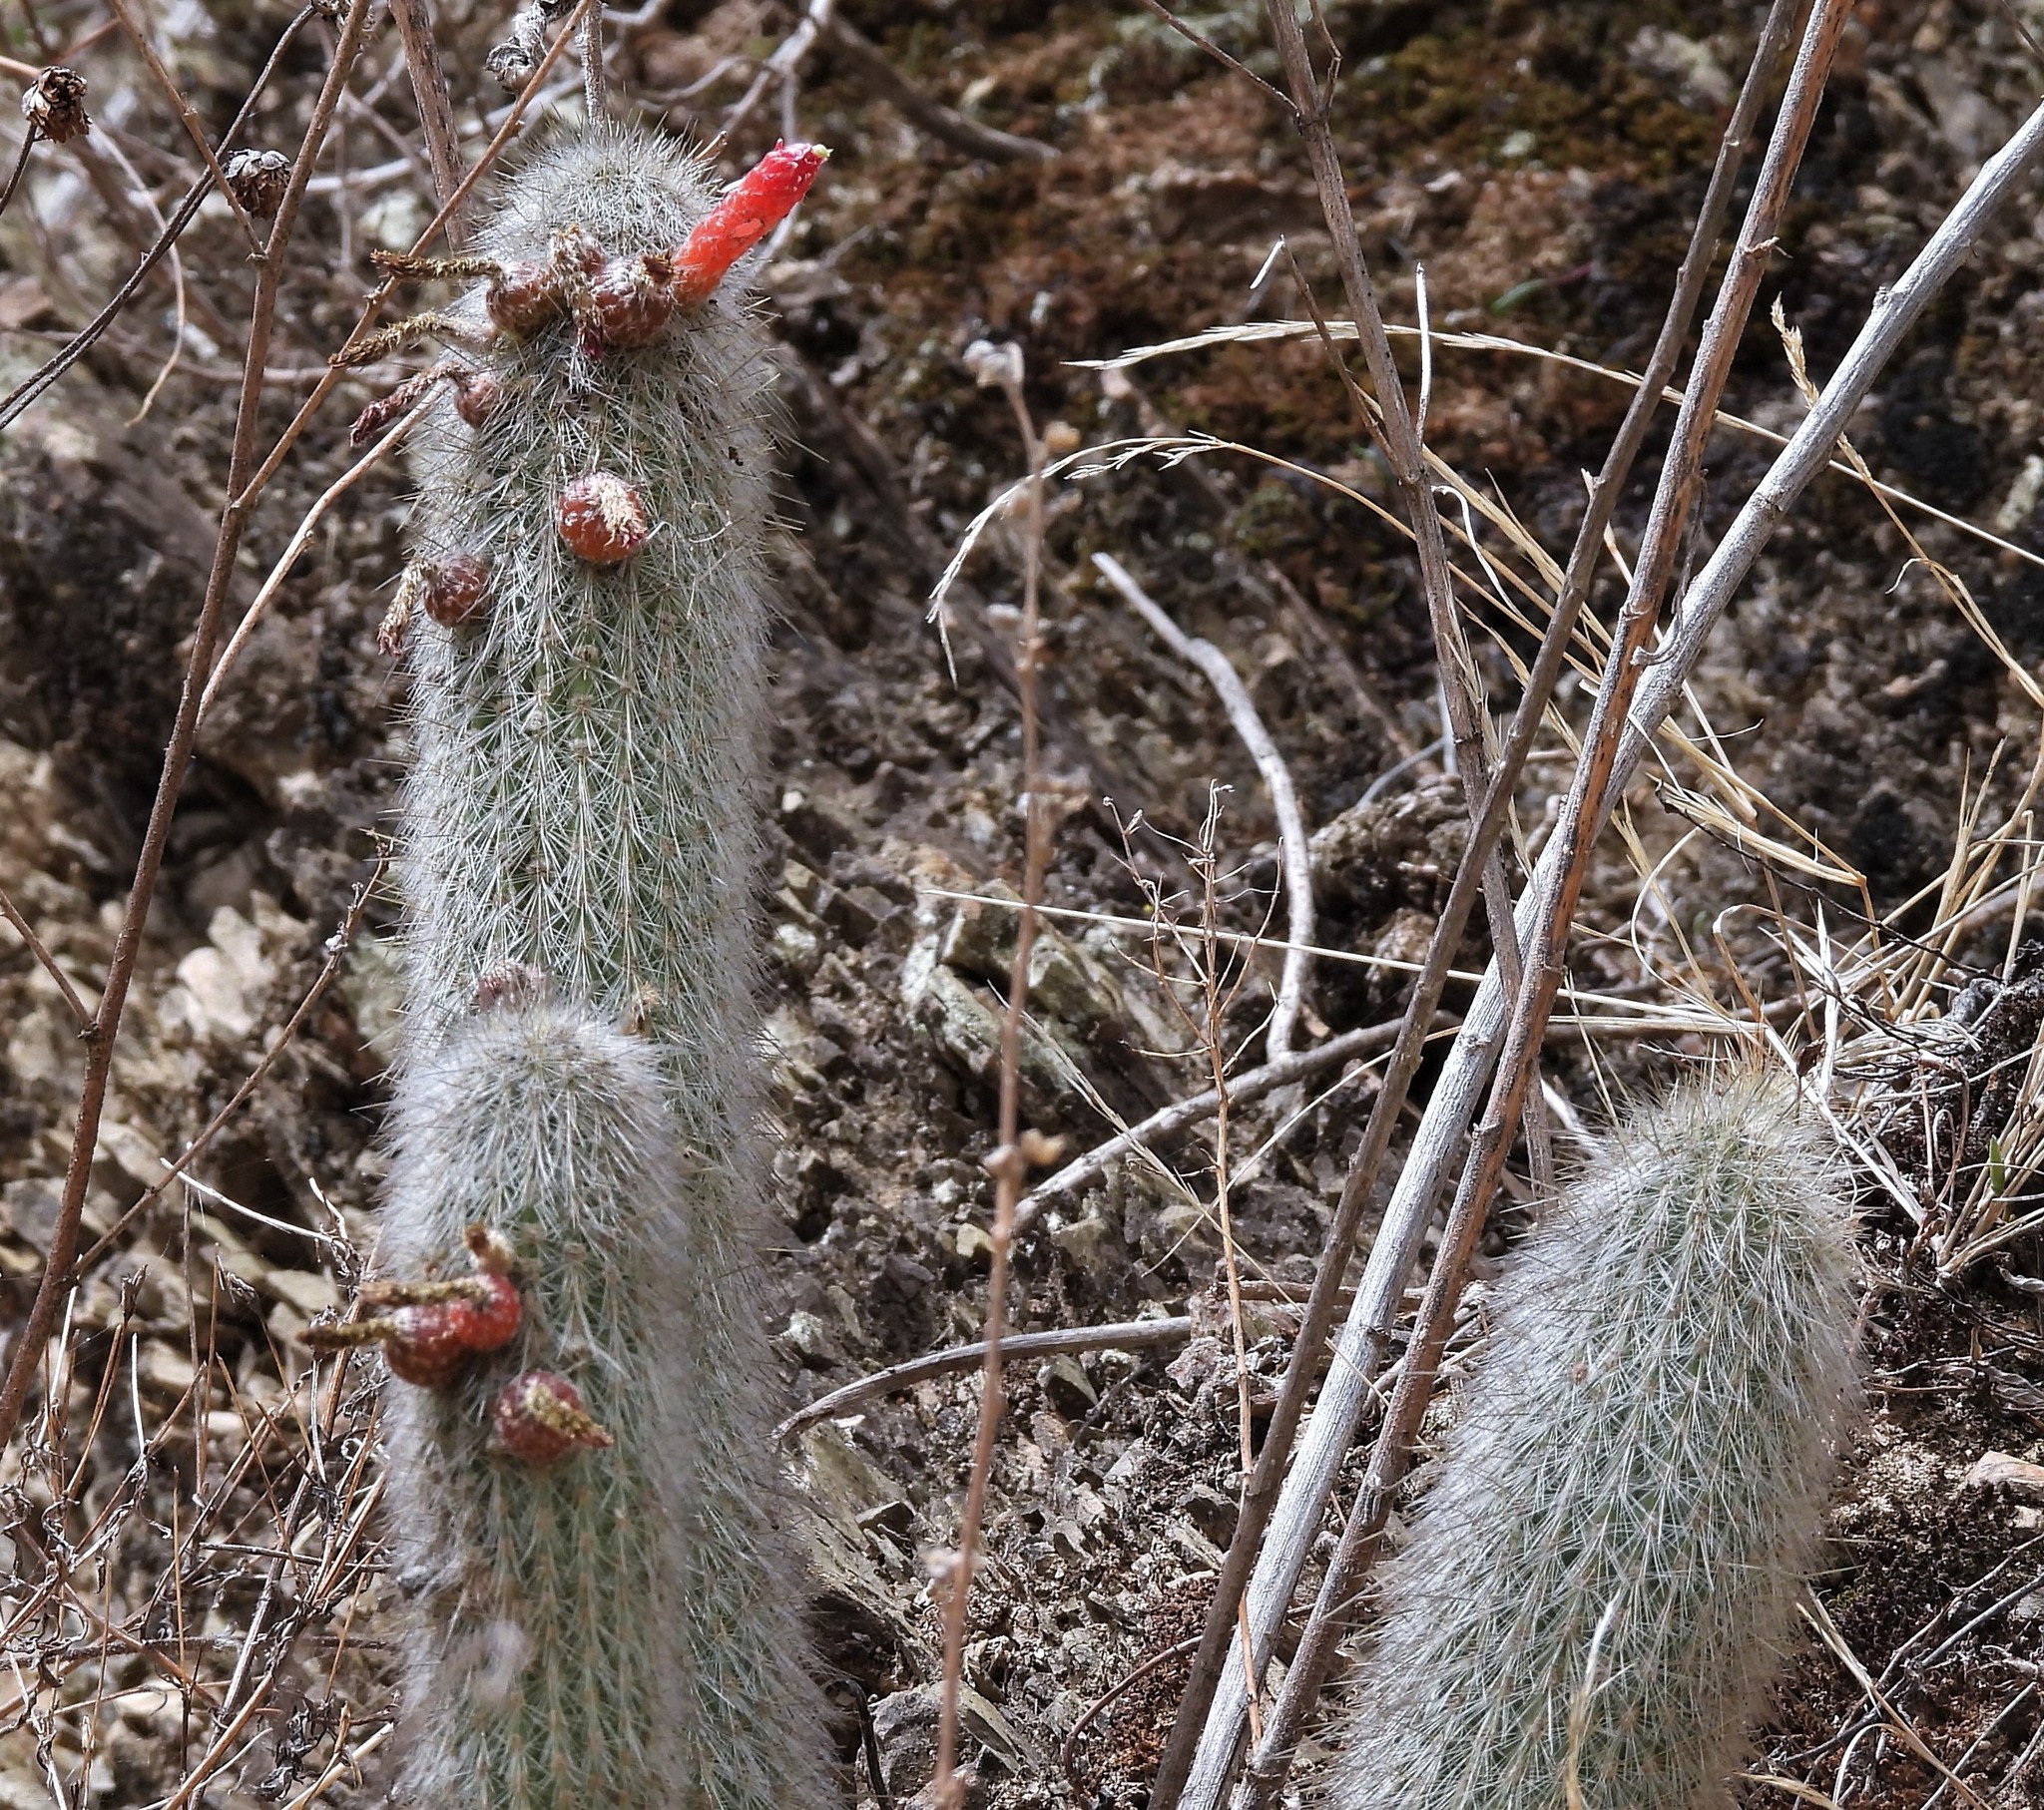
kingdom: Plantae
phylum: Tracheophyta
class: Magnoliopsida
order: Caryophyllales
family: Cactaceae
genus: Cleistocactus
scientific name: Cleistocactus hyalacanthus
